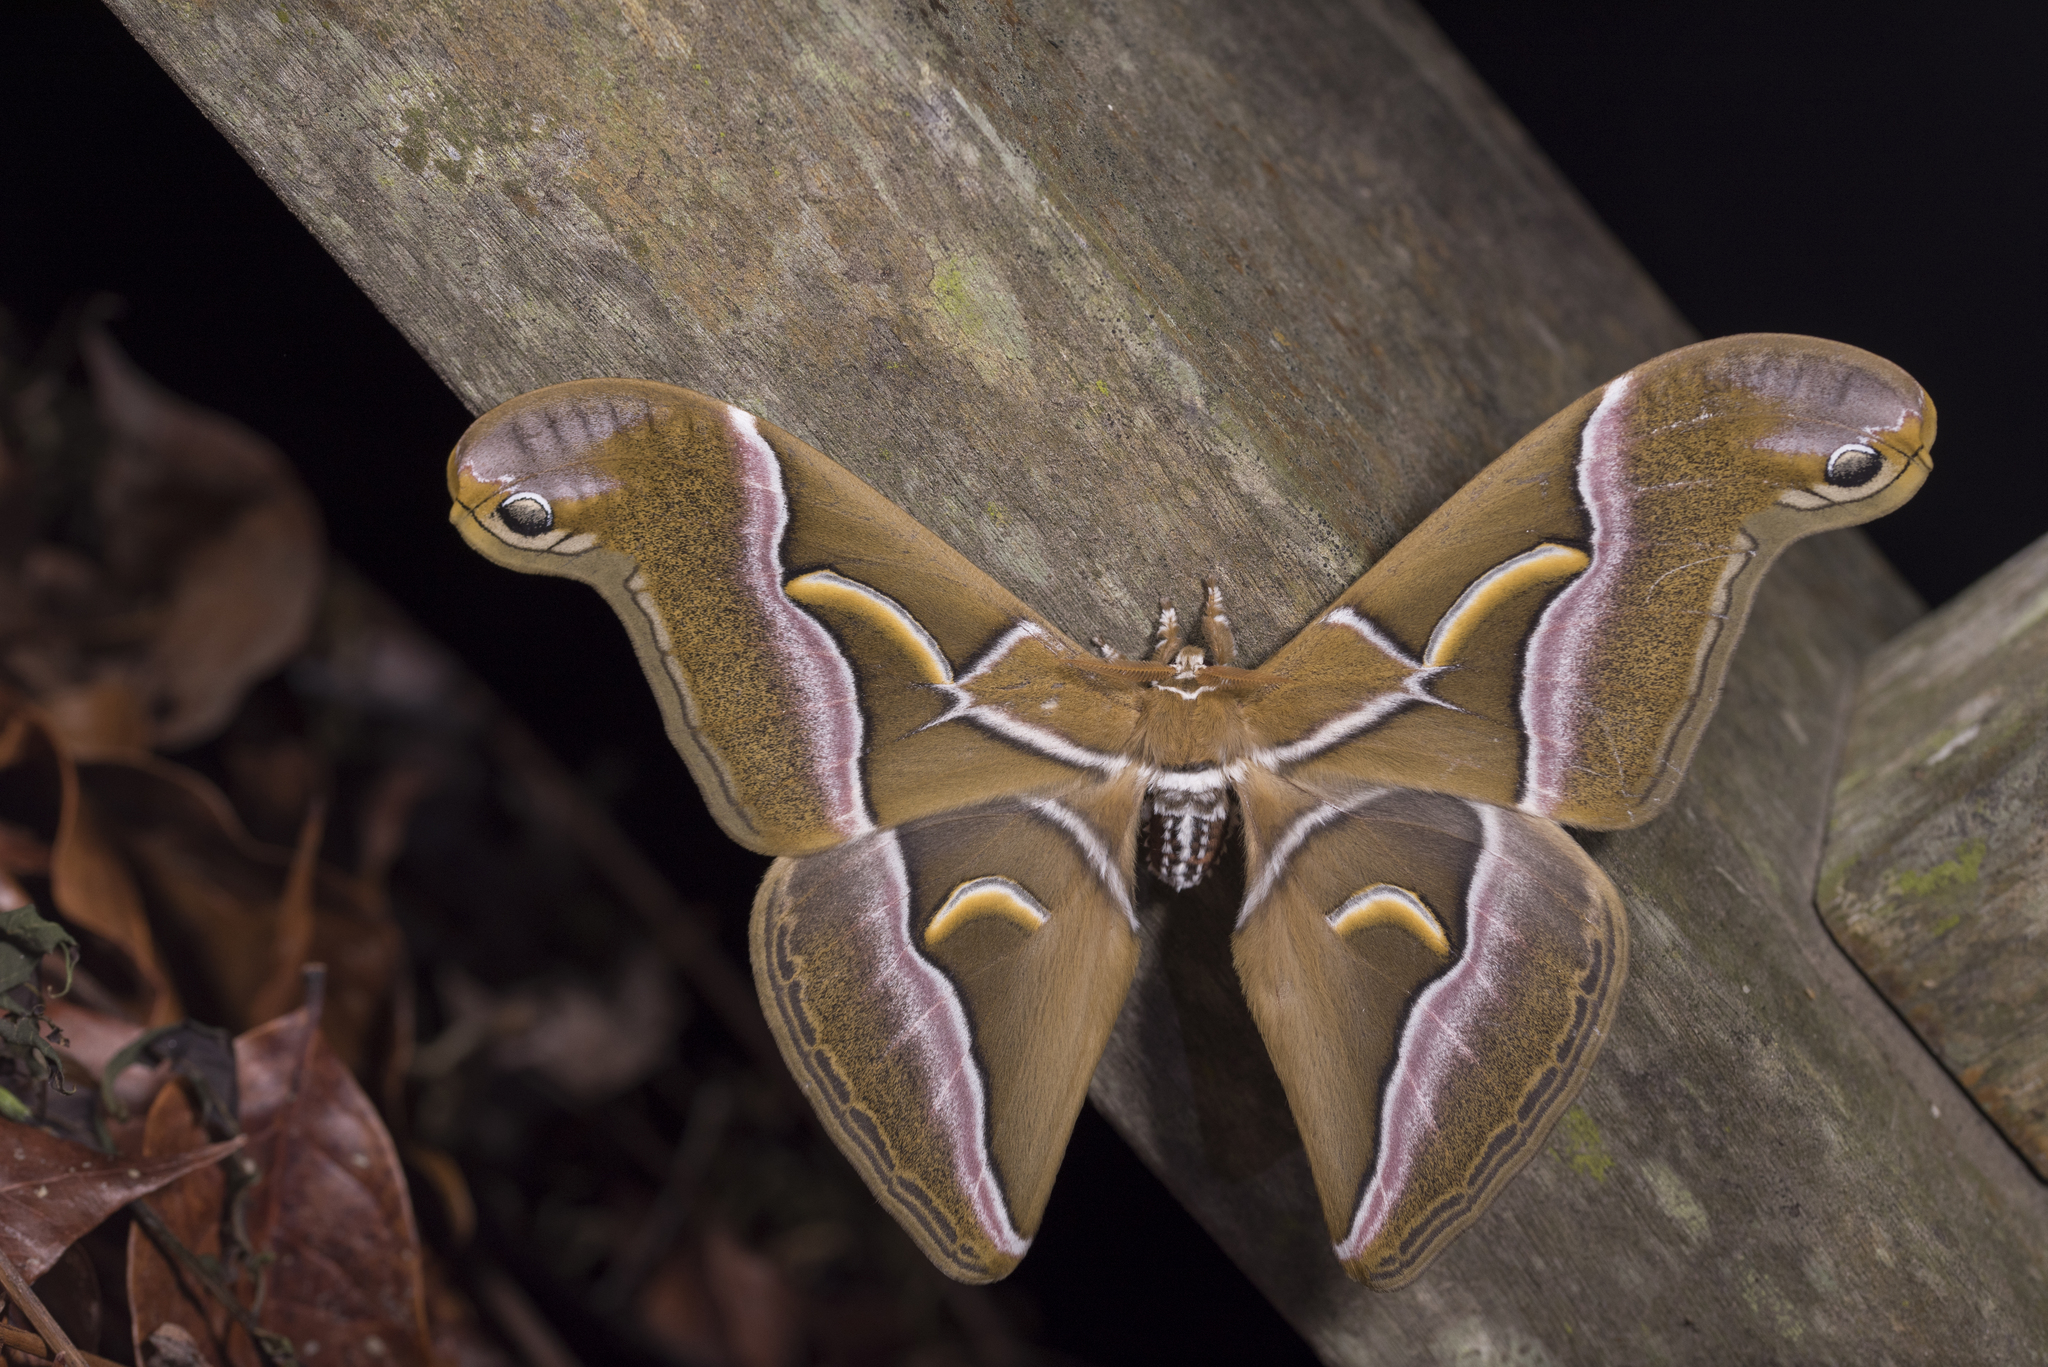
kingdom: Animalia
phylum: Arthropoda
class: Insecta
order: Lepidoptera
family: Saturniidae
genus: Samia
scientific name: Samia wangi
